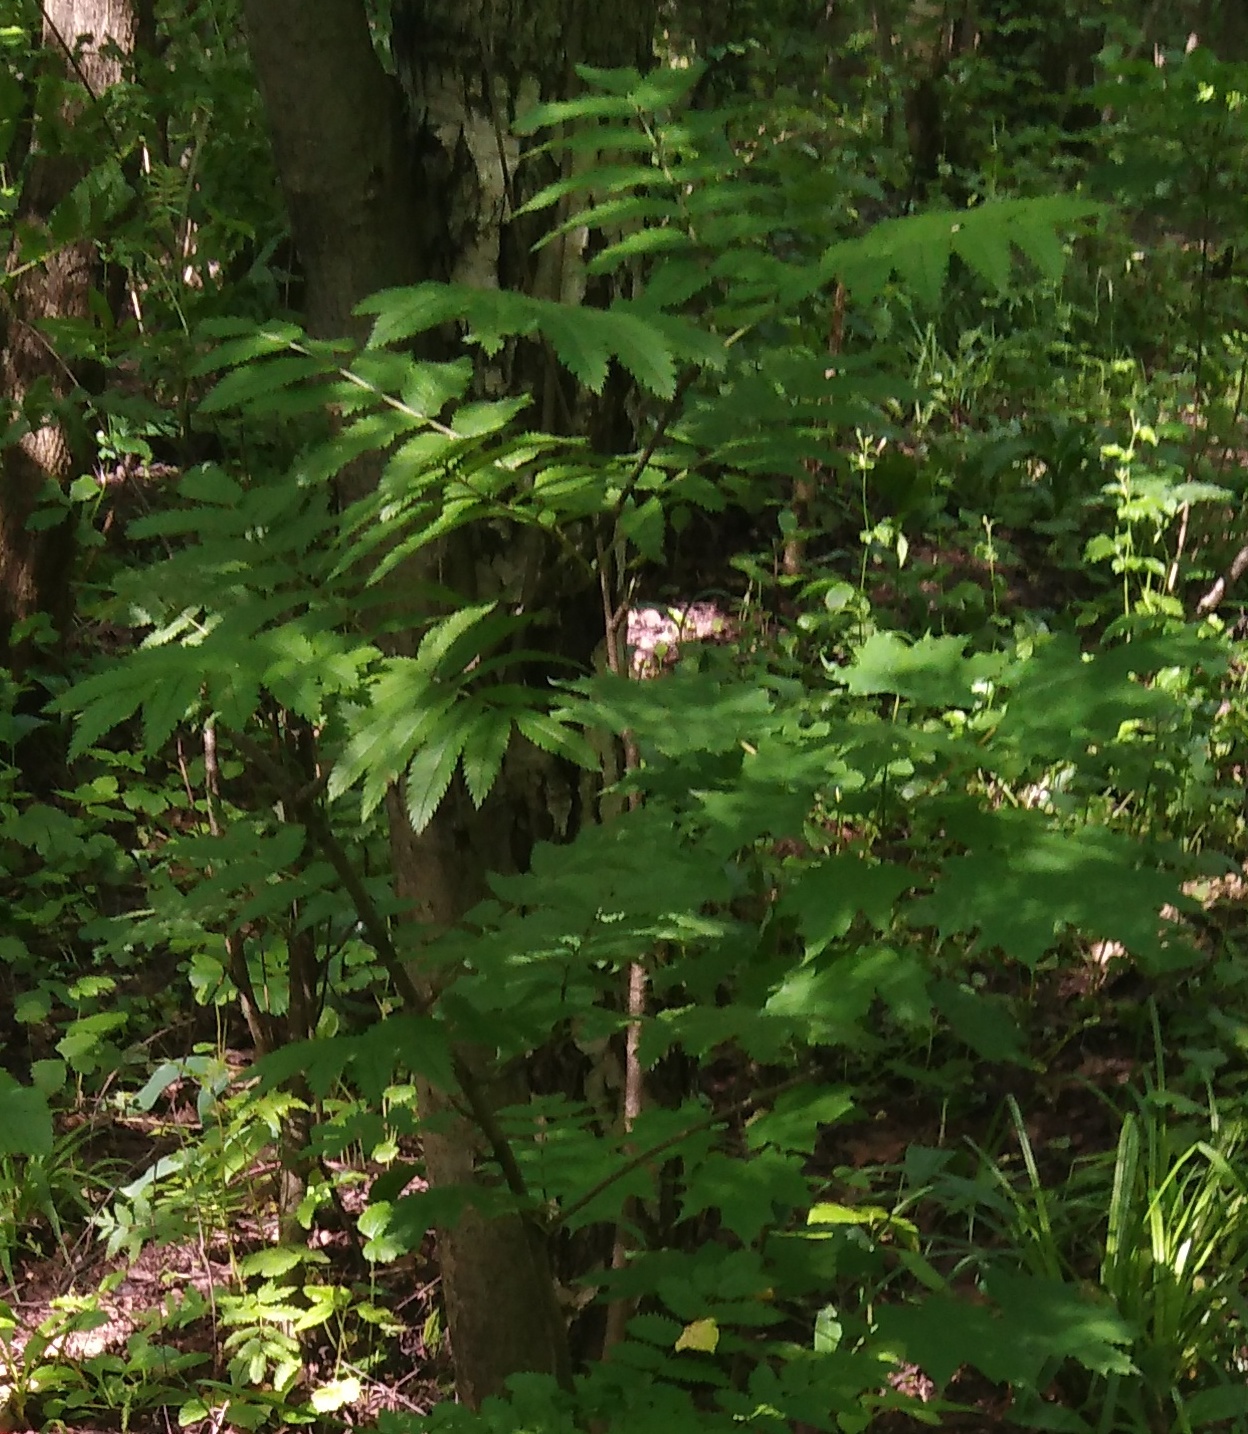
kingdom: Plantae
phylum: Tracheophyta
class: Magnoliopsida
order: Rosales
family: Rosaceae
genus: Sorbus
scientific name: Sorbus aucuparia
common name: Rowan
